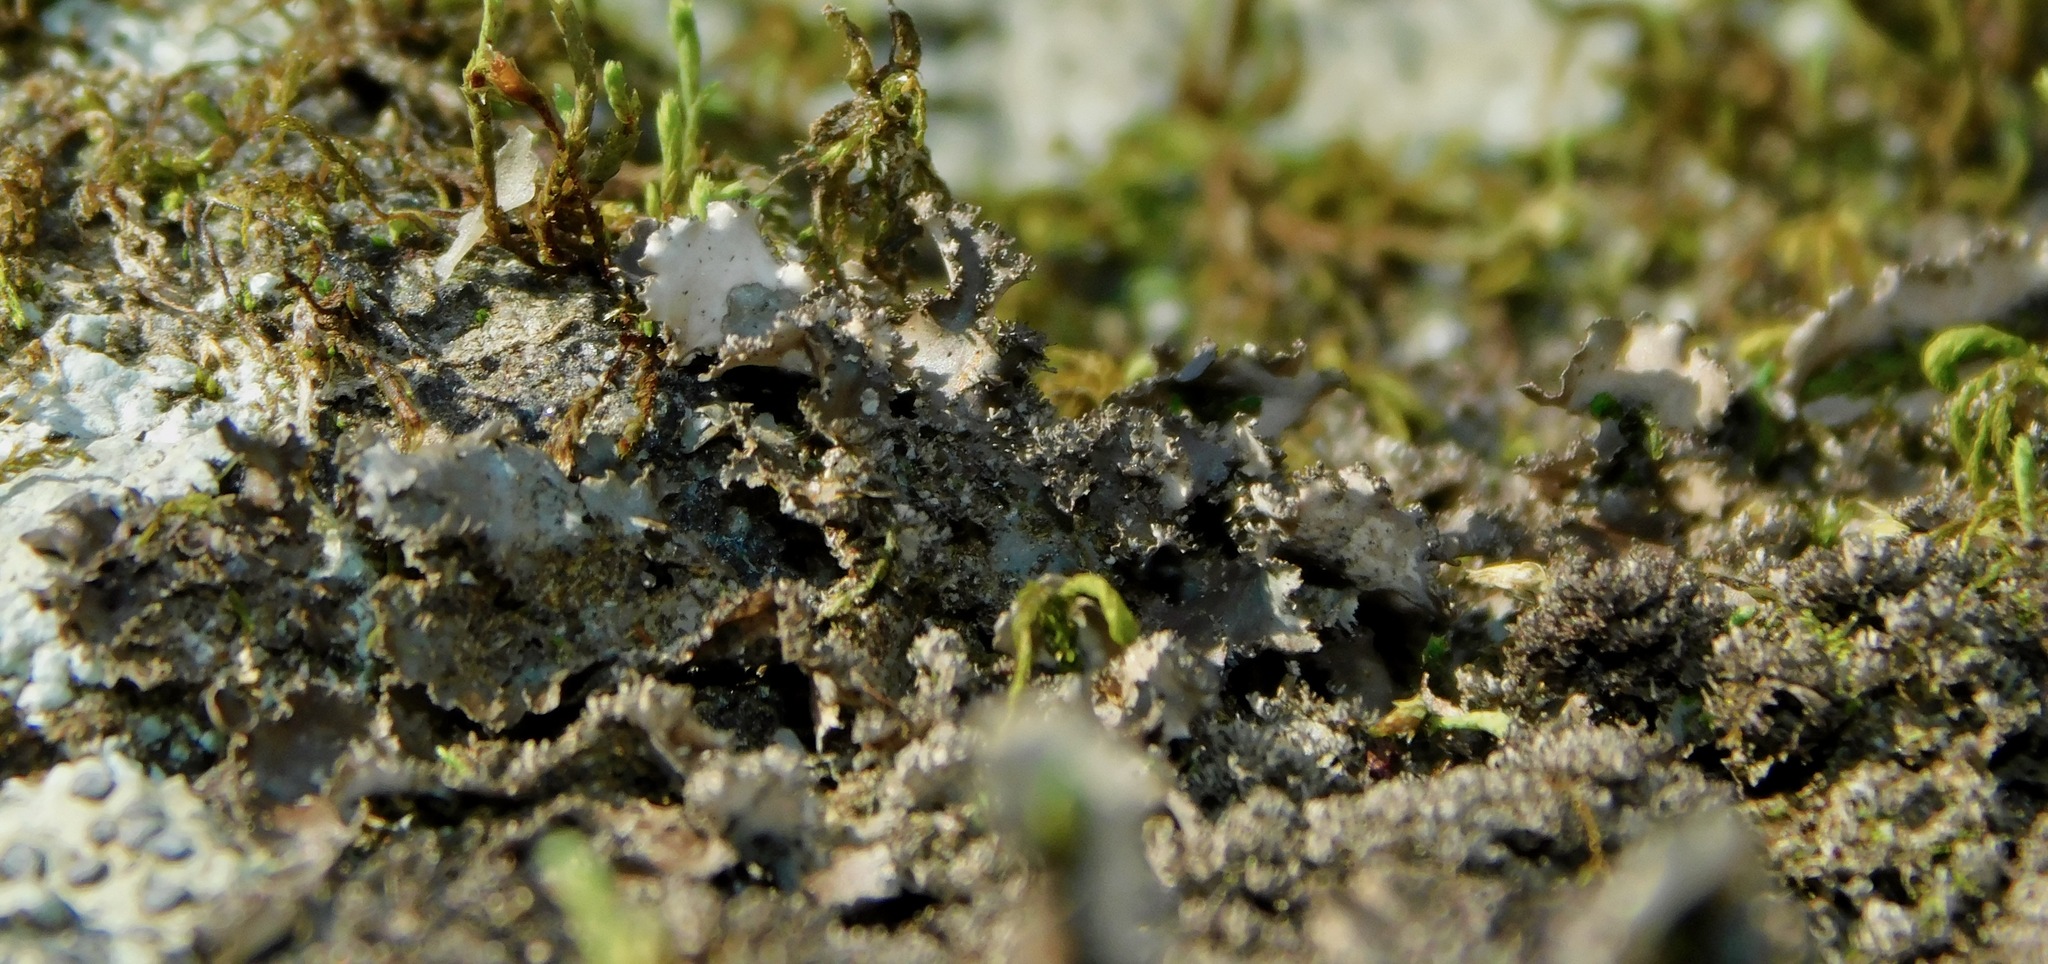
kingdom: Fungi
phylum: Ascomycota
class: Lecanoromycetes
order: Peltigerales
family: Lobariaceae
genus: Sticta
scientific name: Sticta carolinensis
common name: Carolina moon lichen
